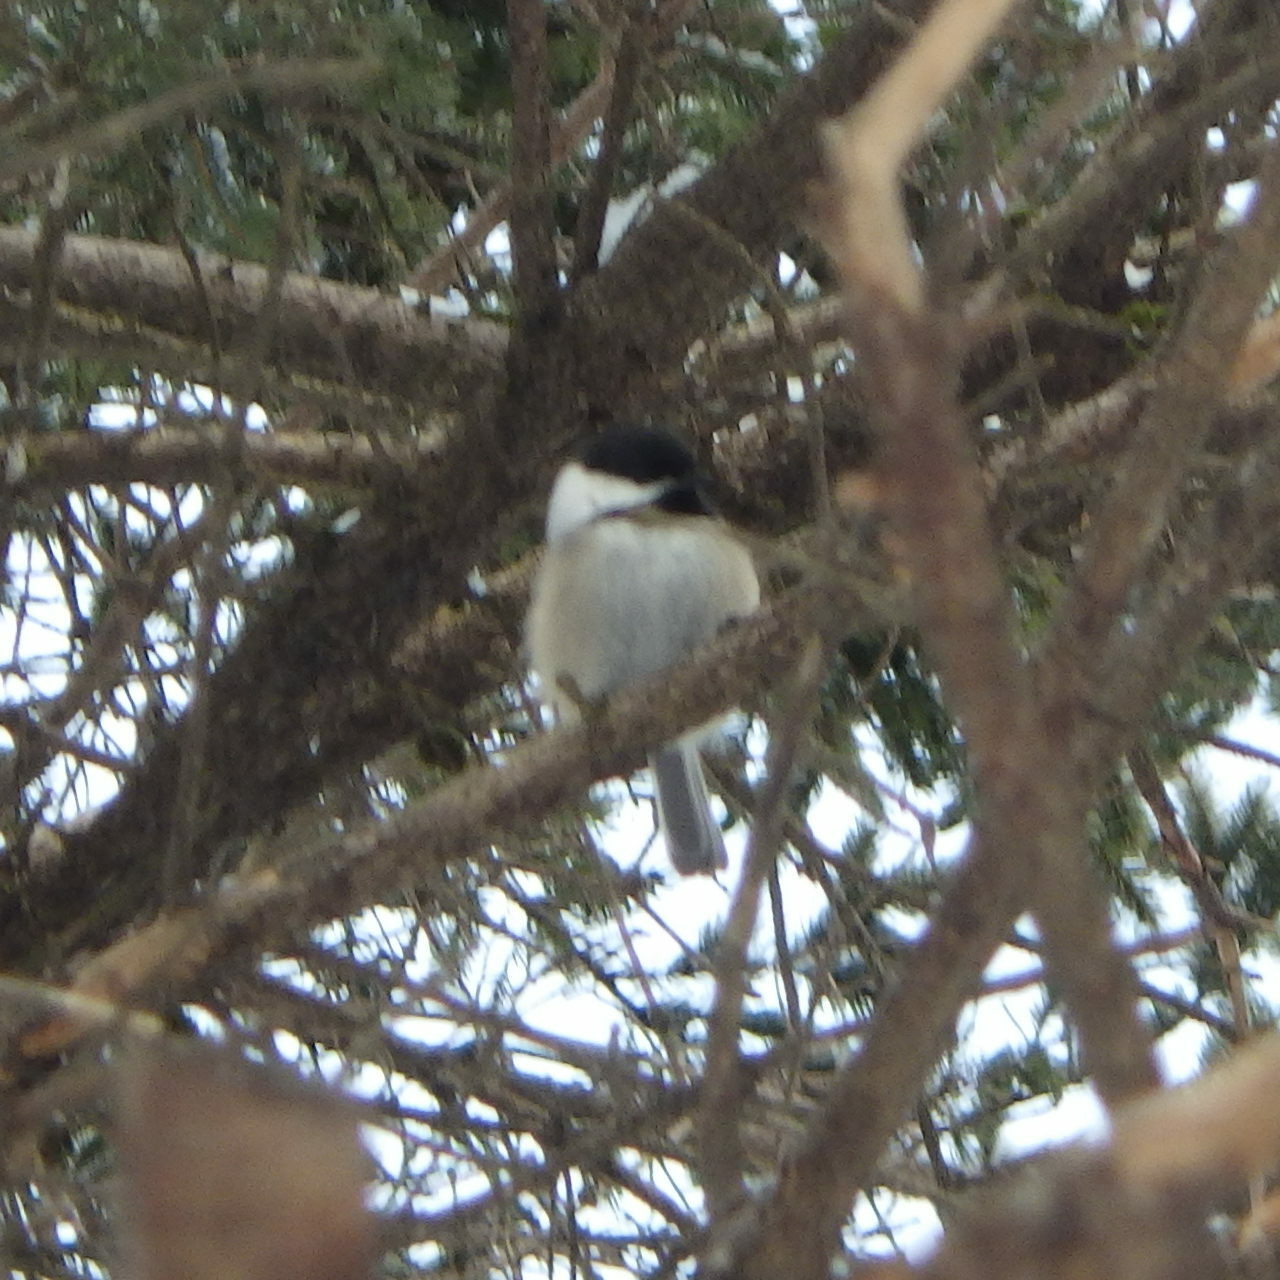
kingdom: Animalia
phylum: Chordata
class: Aves
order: Passeriformes
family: Paridae
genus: Poecile
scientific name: Poecile atricapillus
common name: Black-capped chickadee
